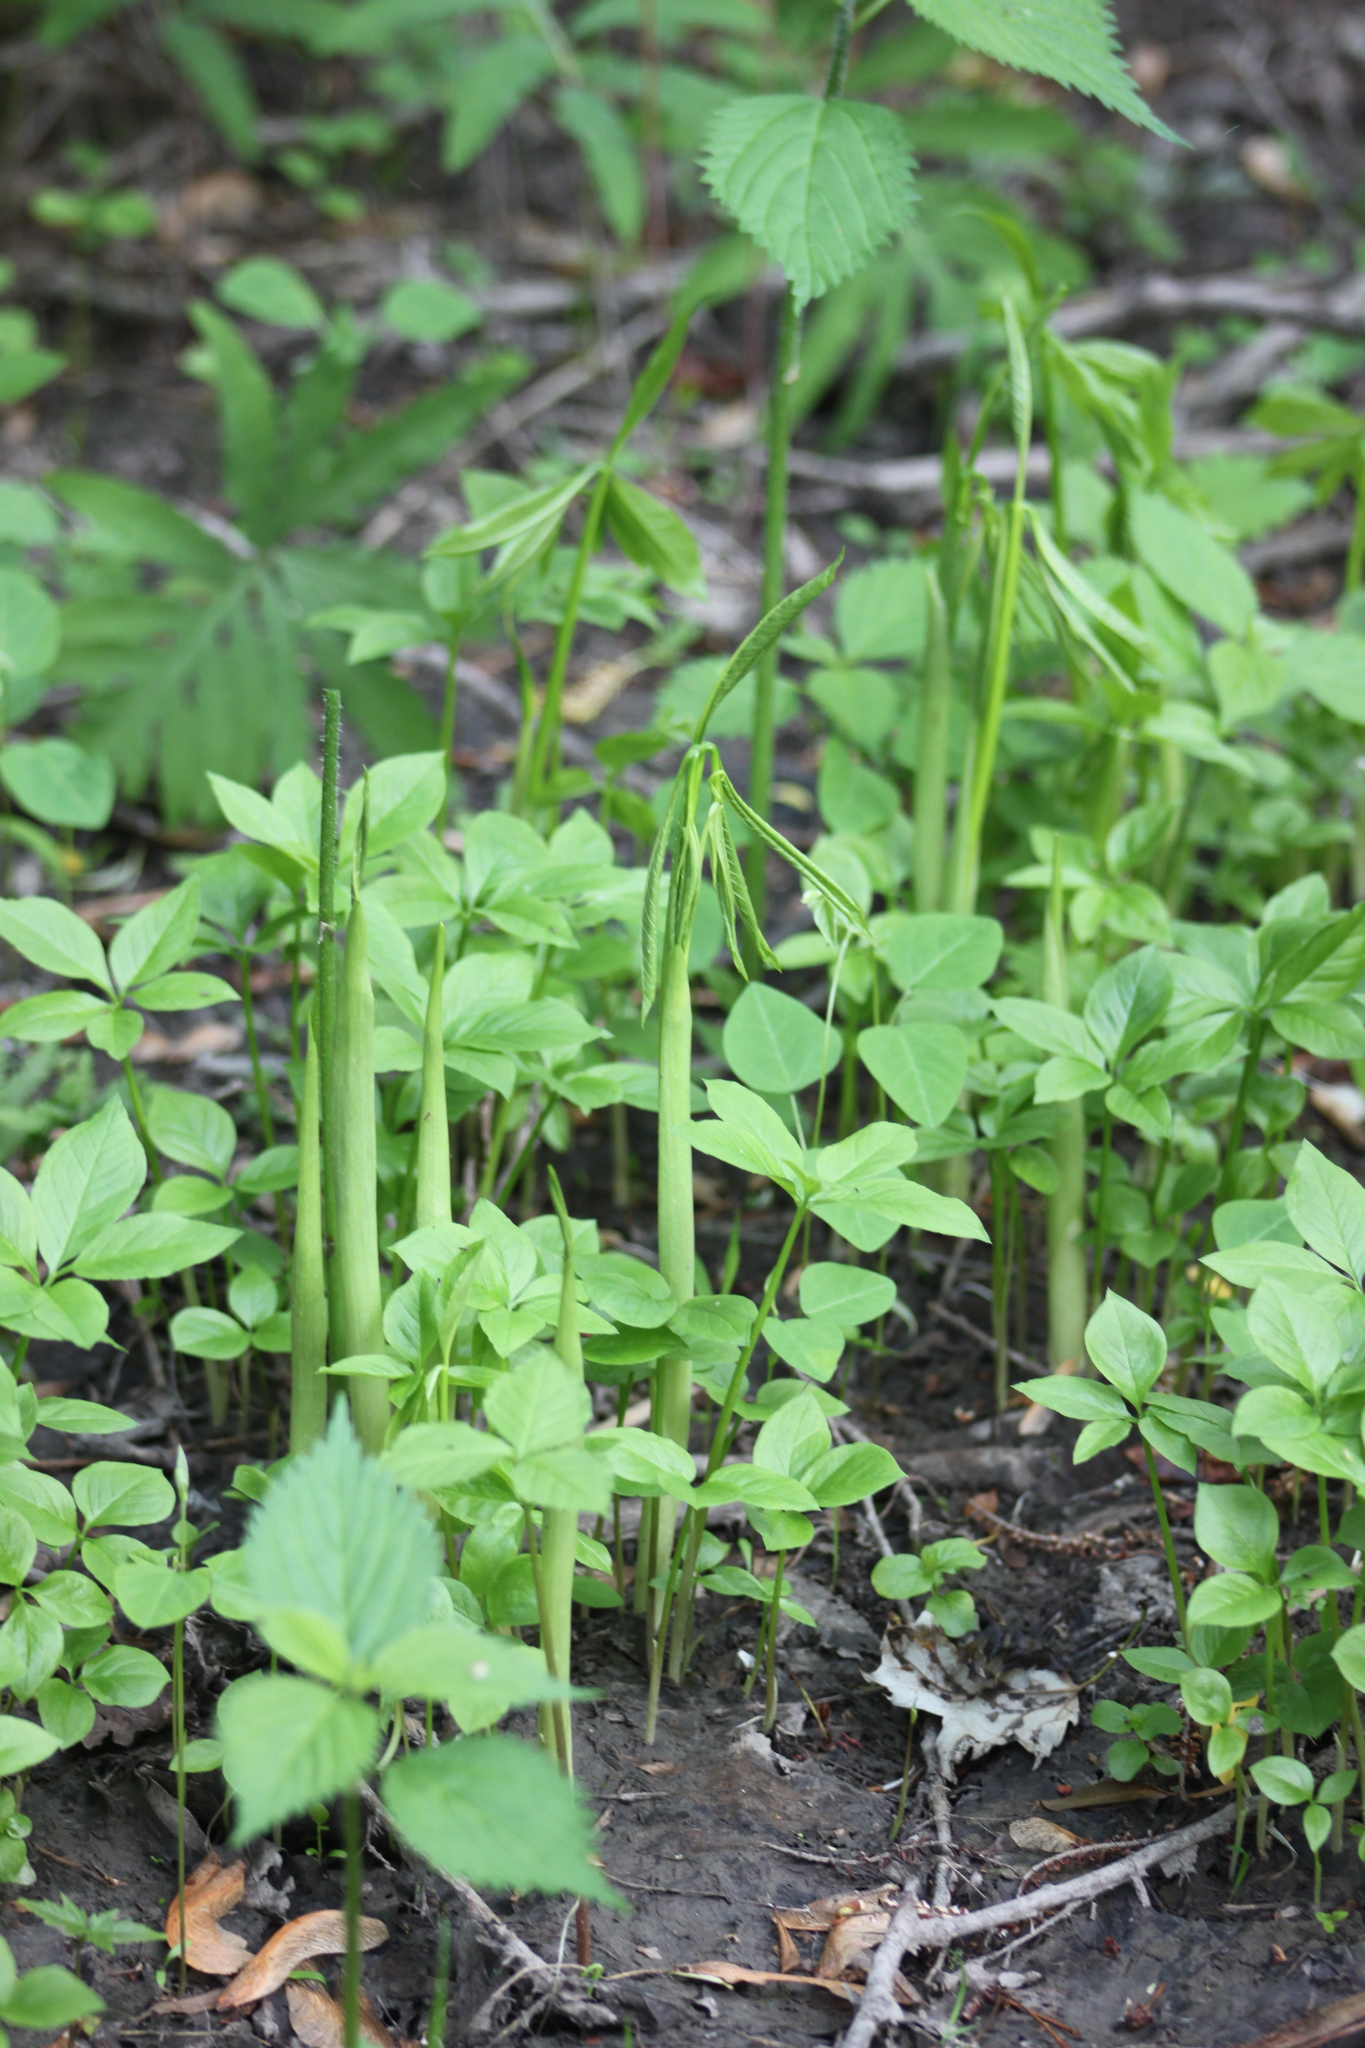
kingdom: Plantae
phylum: Tracheophyta
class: Liliopsida
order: Alismatales
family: Araceae
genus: Arisaema
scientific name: Arisaema dracontium
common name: Dragon-arum
